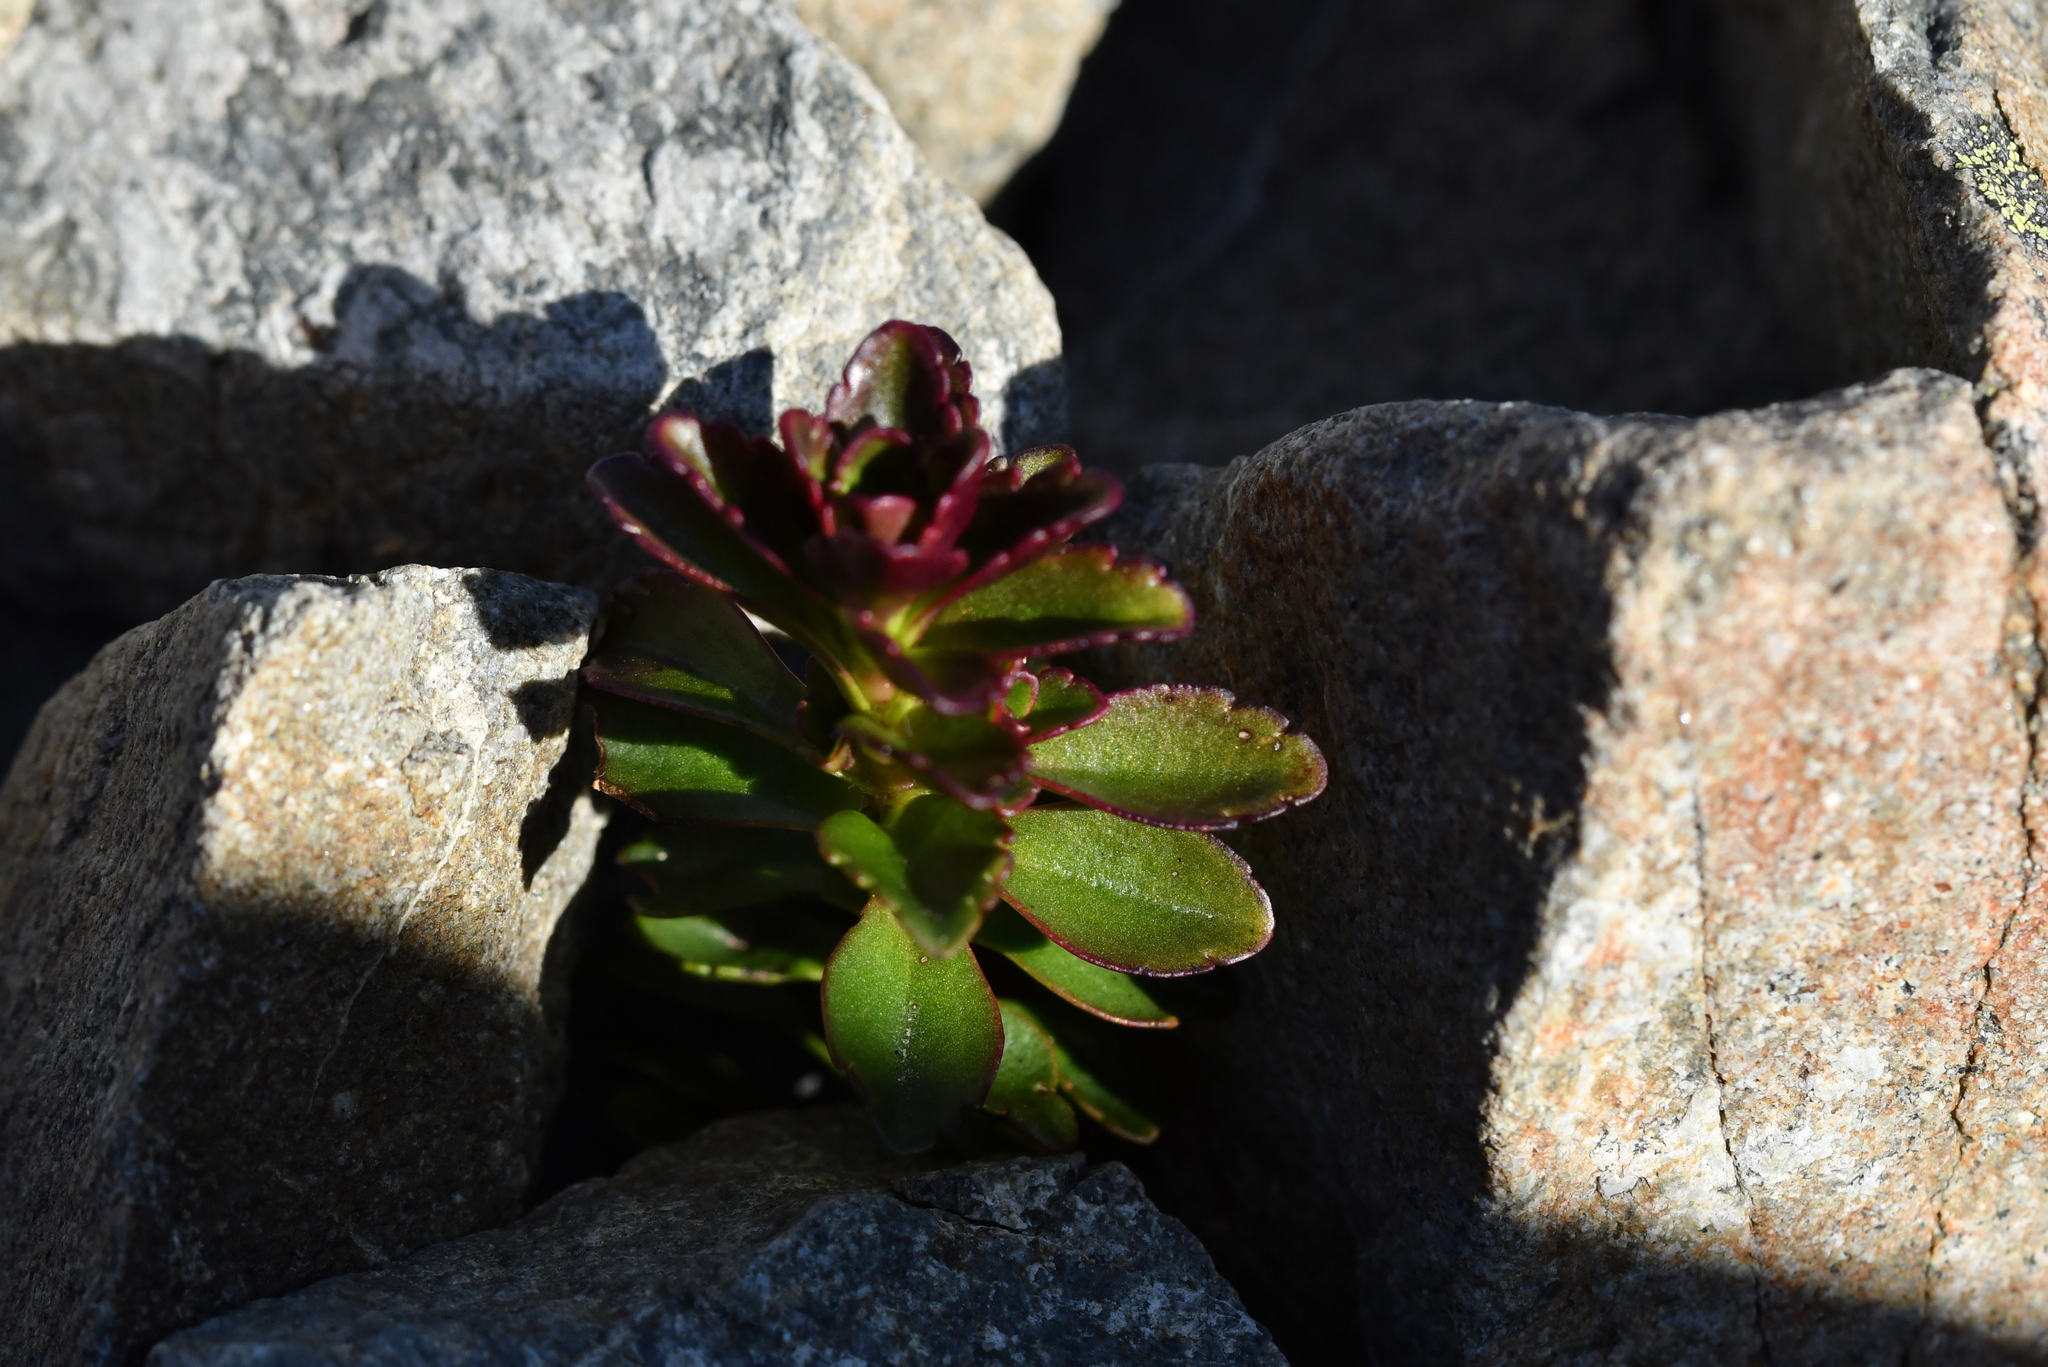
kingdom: Plantae
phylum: Tracheophyta
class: Magnoliopsida
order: Lamiales
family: Plantaginaceae
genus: Veronica
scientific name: Veronica haastii
